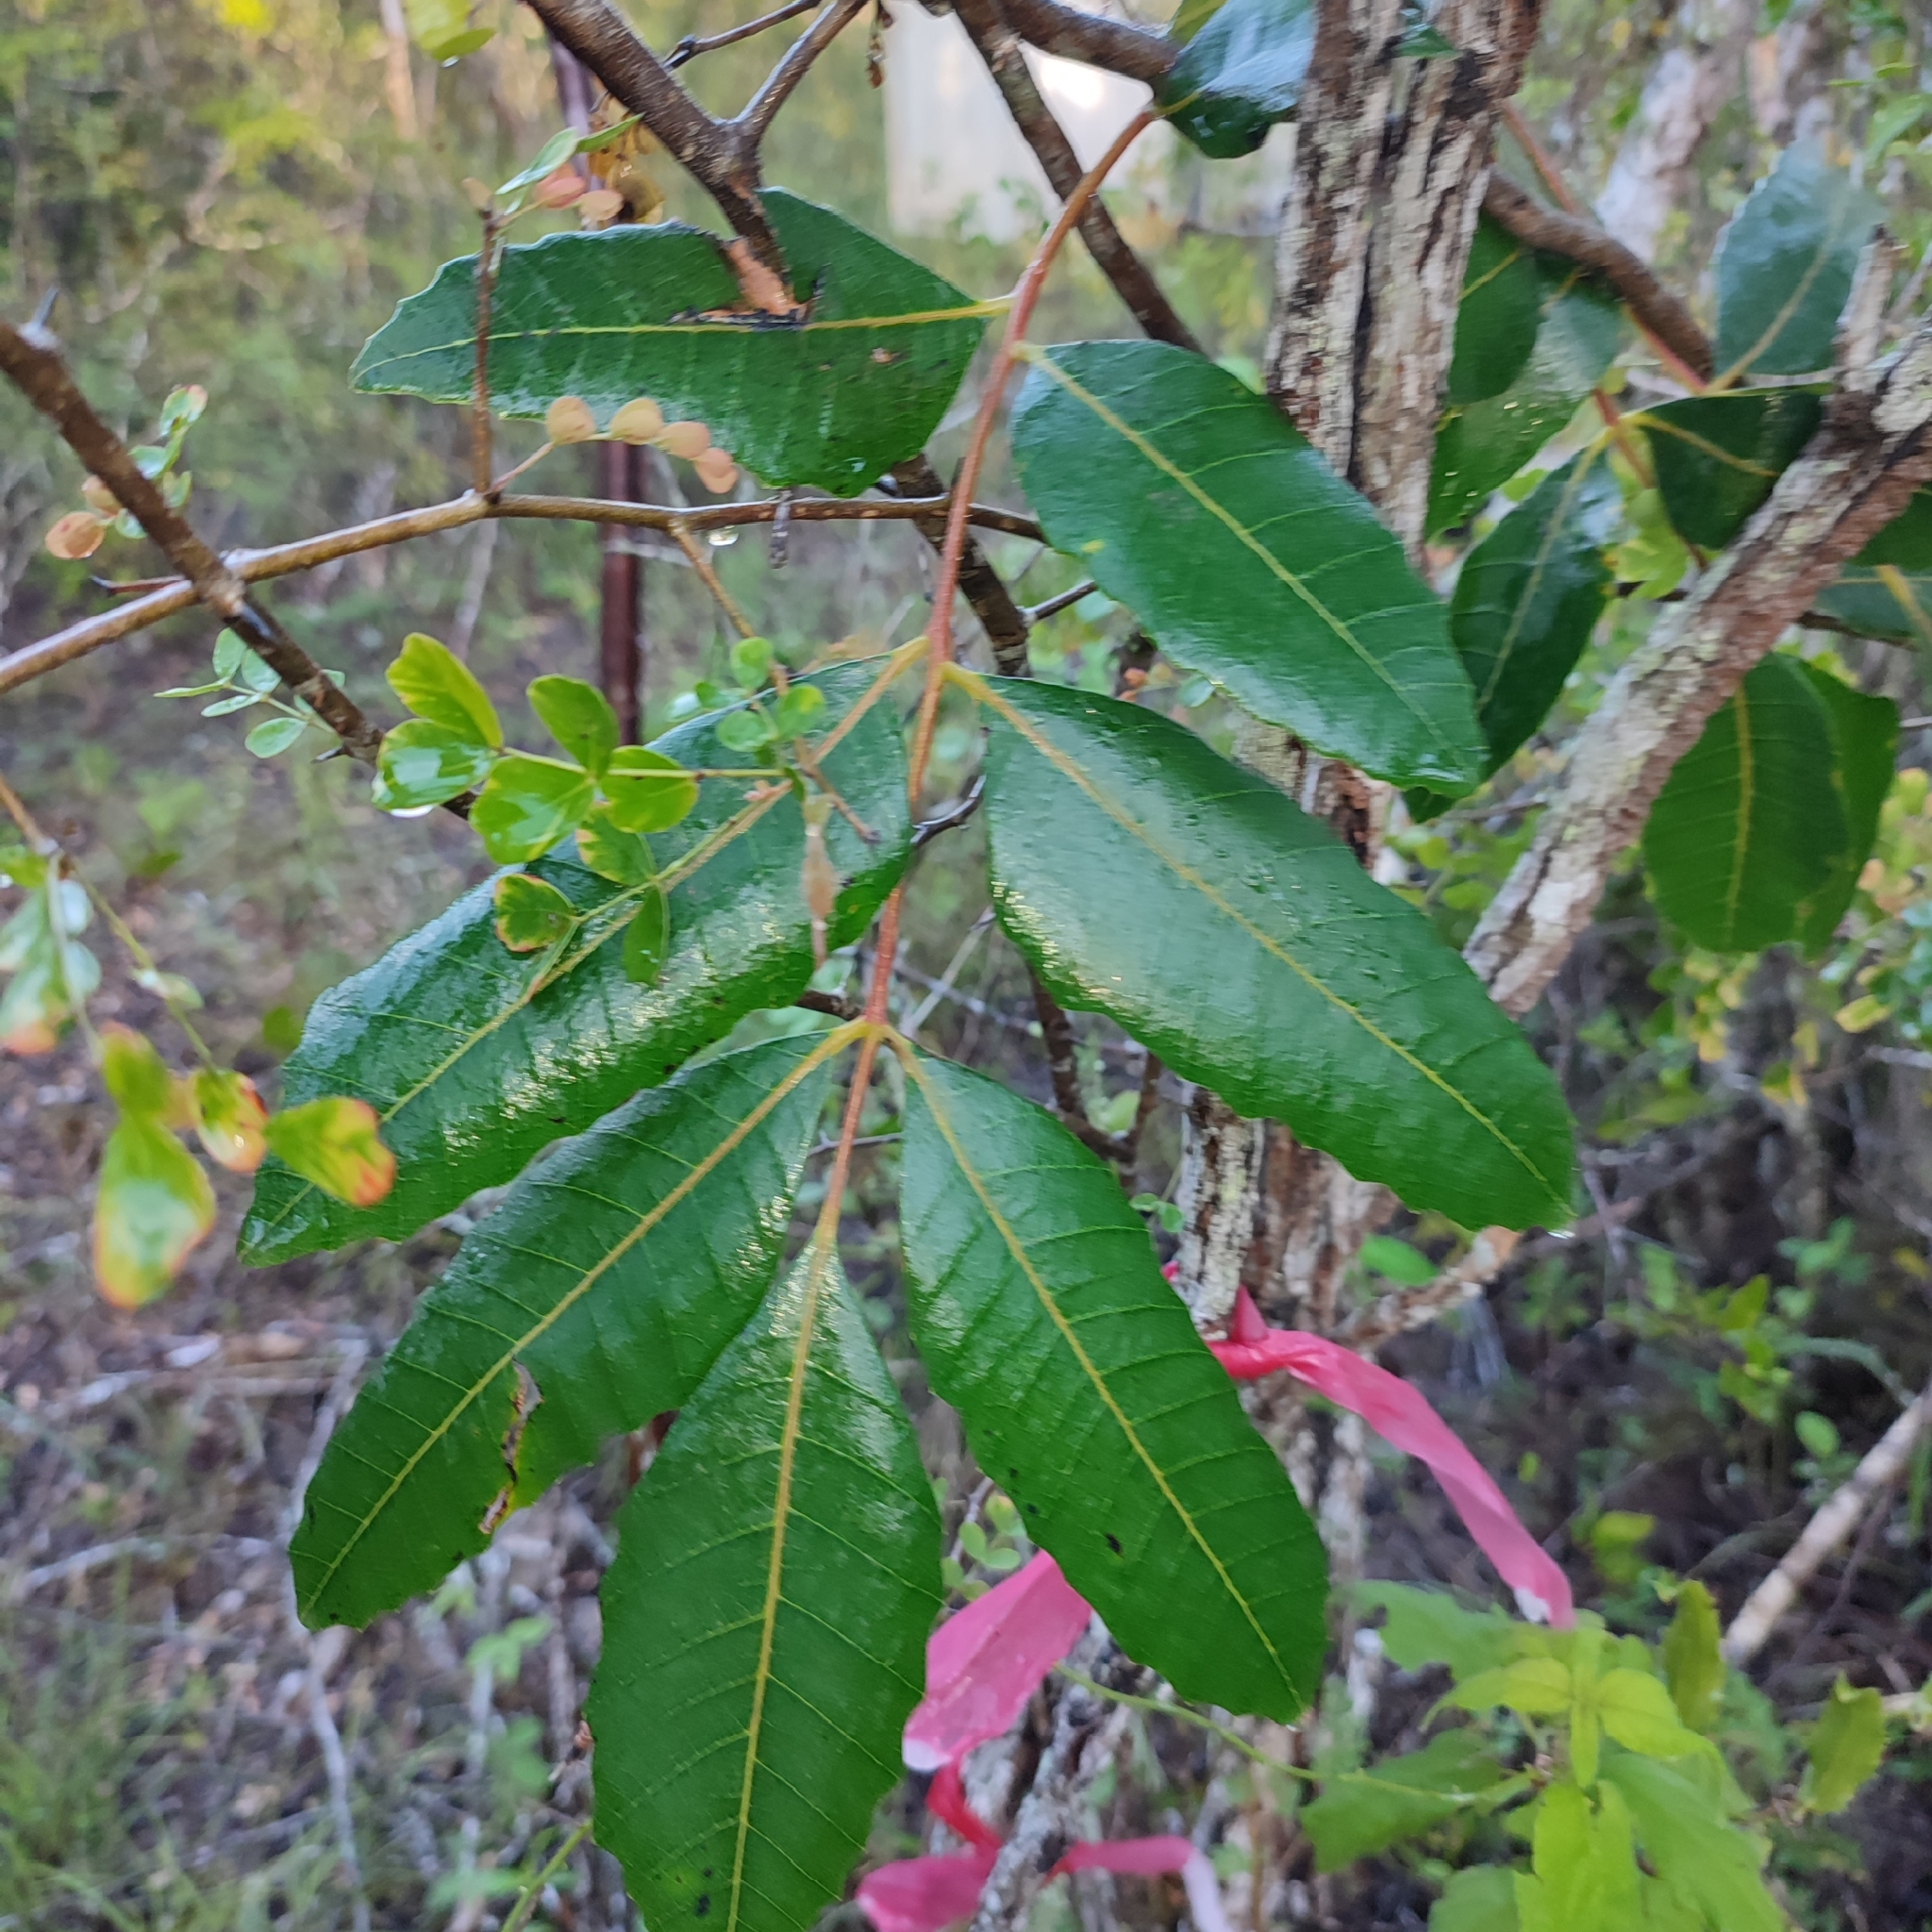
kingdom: Plantae
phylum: Tracheophyta
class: Magnoliopsida
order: Sapindales
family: Anacardiaceae
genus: Comocladia
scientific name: Comocladia dentata
